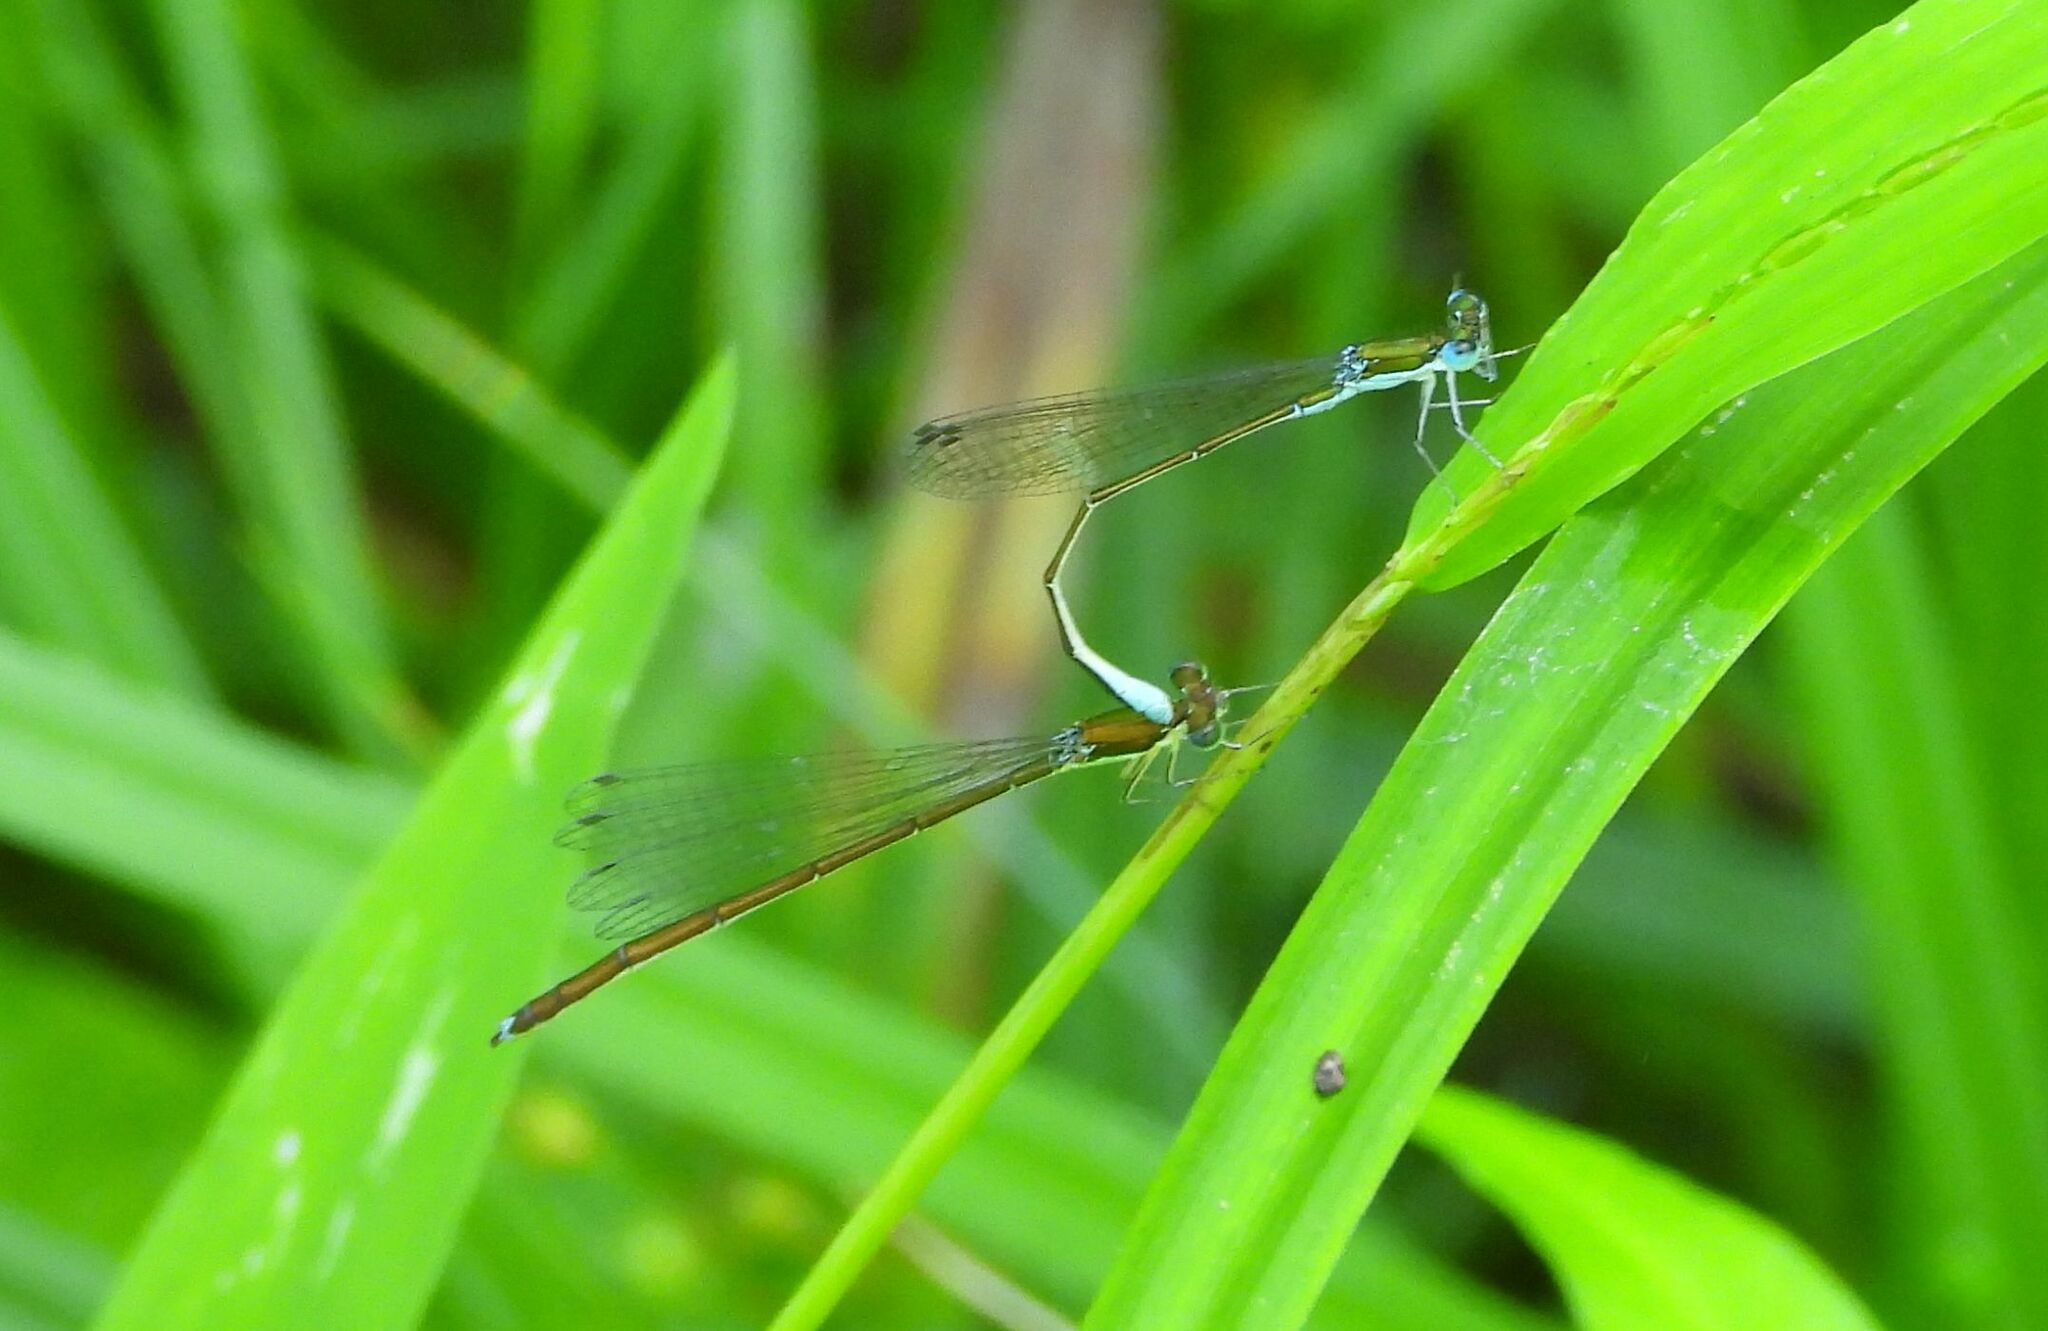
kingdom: Animalia
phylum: Arthropoda
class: Insecta
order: Odonata
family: Coenagrionidae
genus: Nehalennia
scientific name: Nehalennia irene
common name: Sedge sprite
